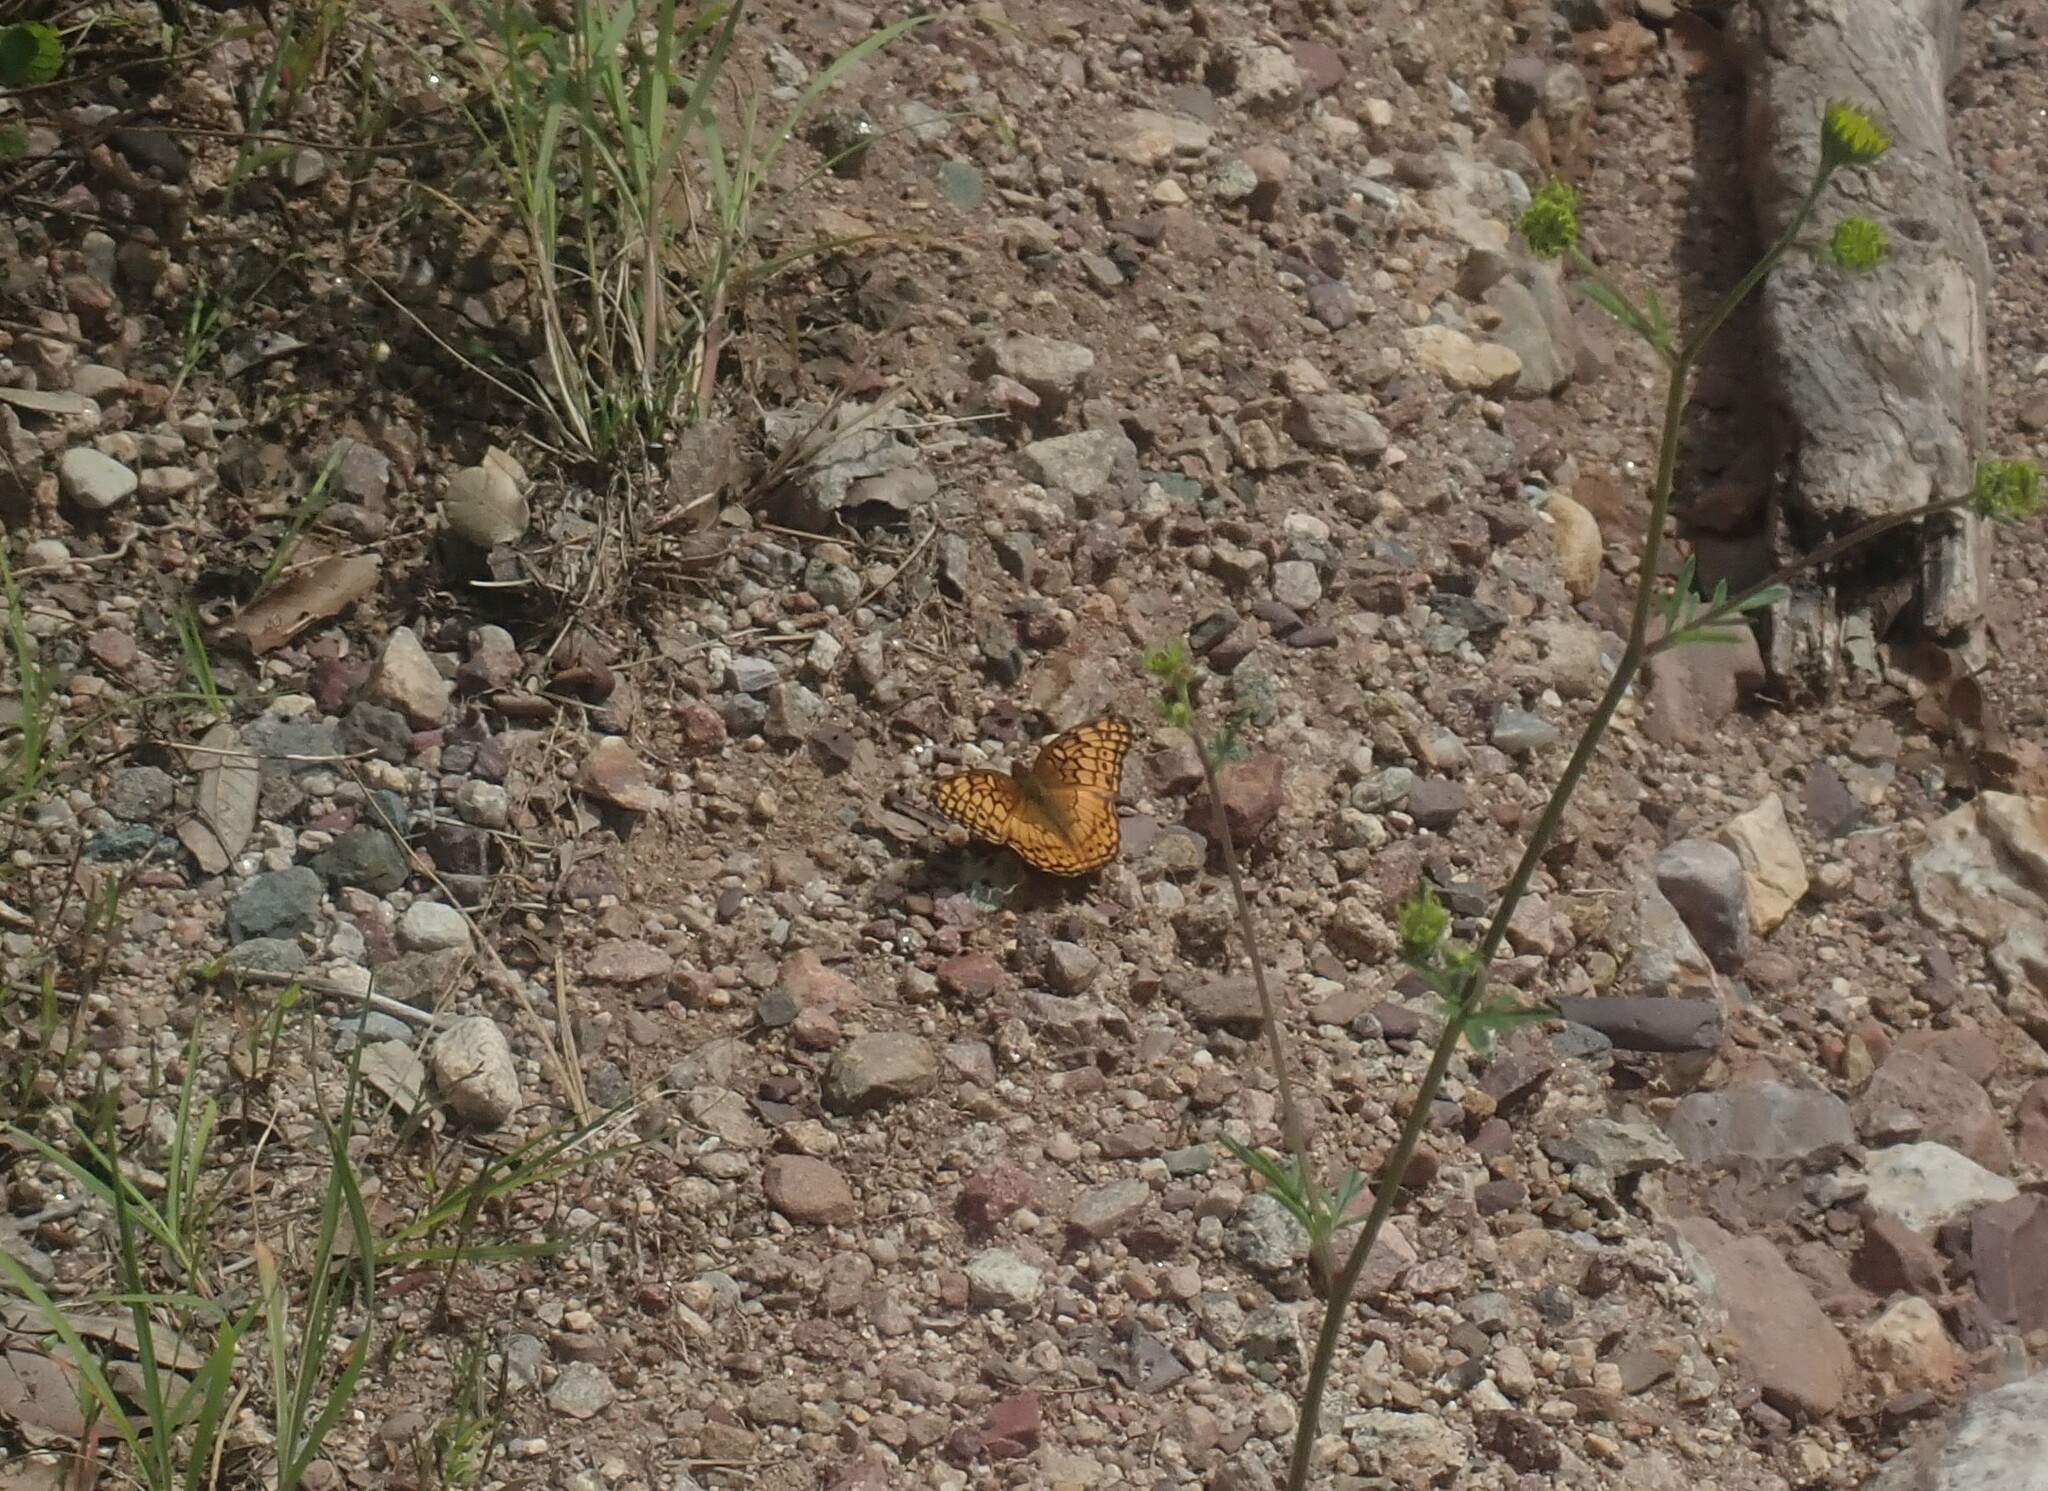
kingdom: Animalia
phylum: Arthropoda
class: Insecta
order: Lepidoptera
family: Nymphalidae
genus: Euptoieta
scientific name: Euptoieta claudia
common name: Variegated fritillary
